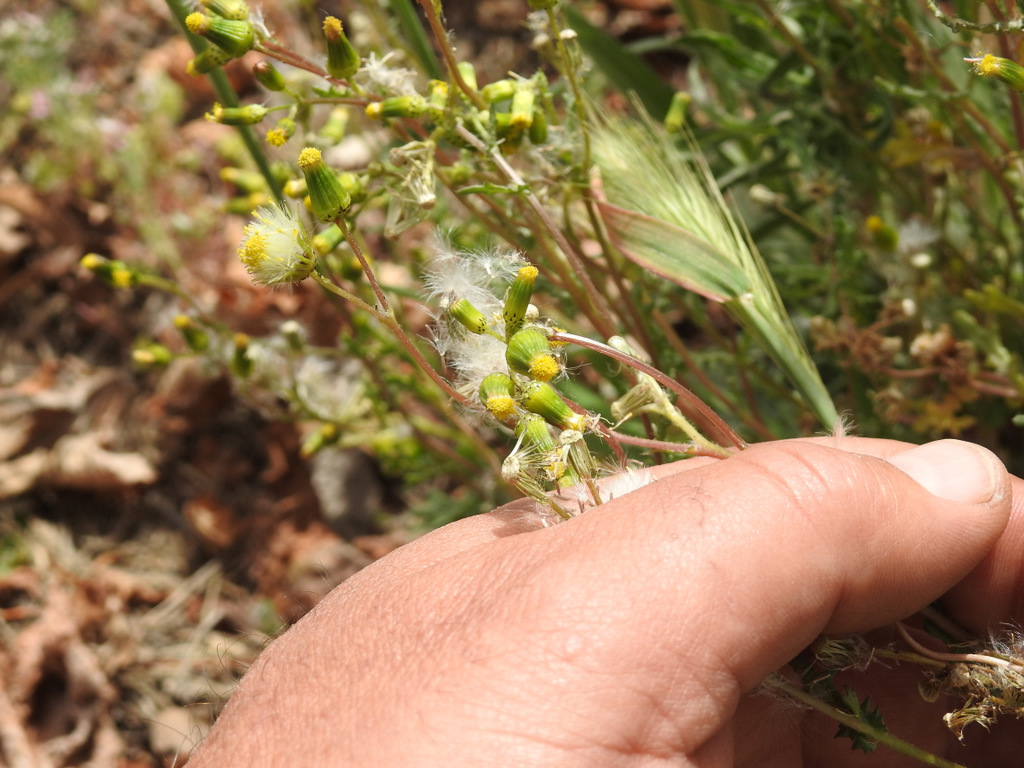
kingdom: Plantae
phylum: Tracheophyta
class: Magnoliopsida
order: Asterales
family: Asteraceae
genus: Senecio
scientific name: Senecio vulgaris
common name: Old-man-in-the-spring
